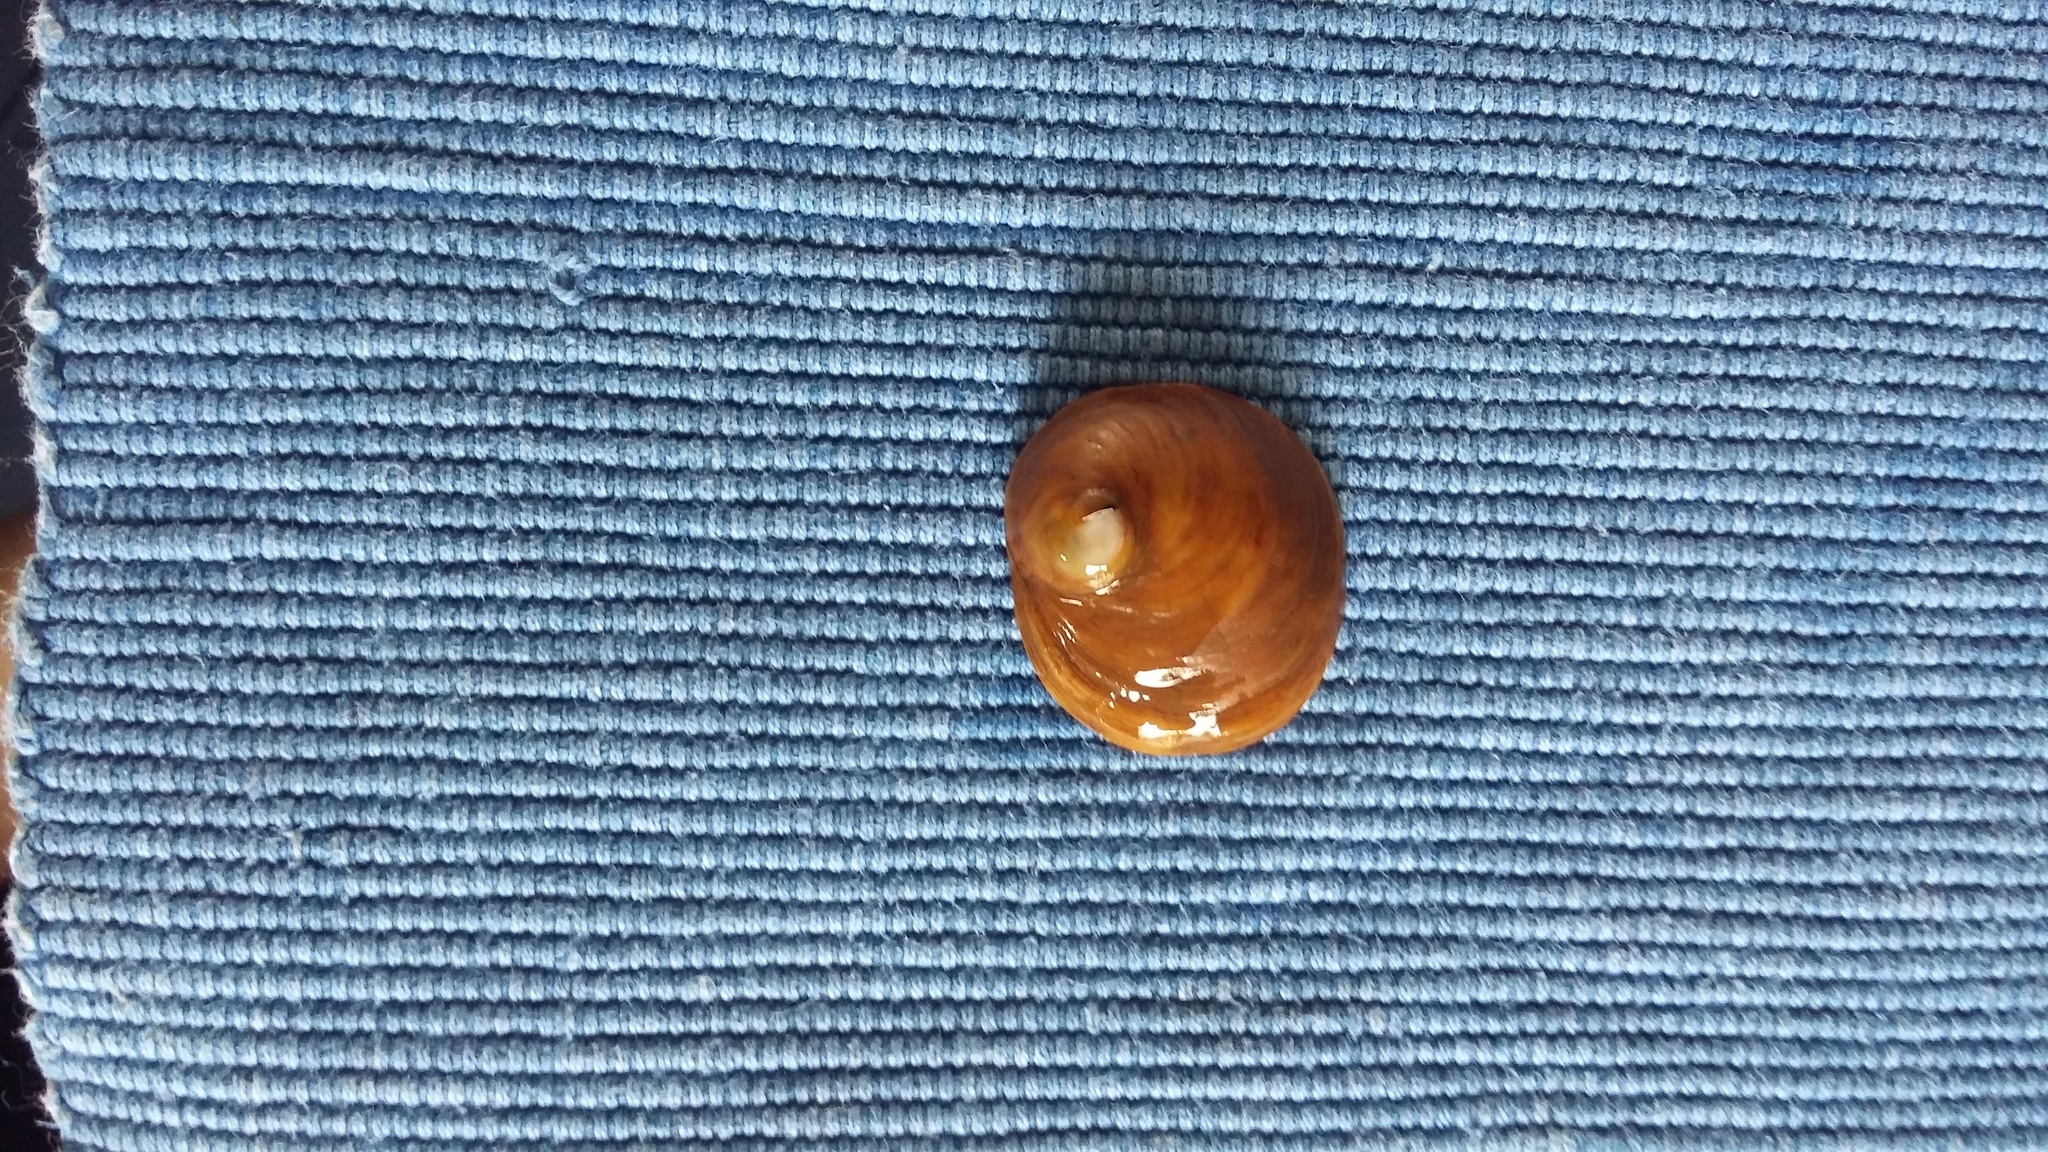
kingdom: Animalia
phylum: Mollusca
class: Gastropoda
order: Littorinimorpha
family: Calyptraeidae
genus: Sigapatella
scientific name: Sigapatella novaezelandiae
